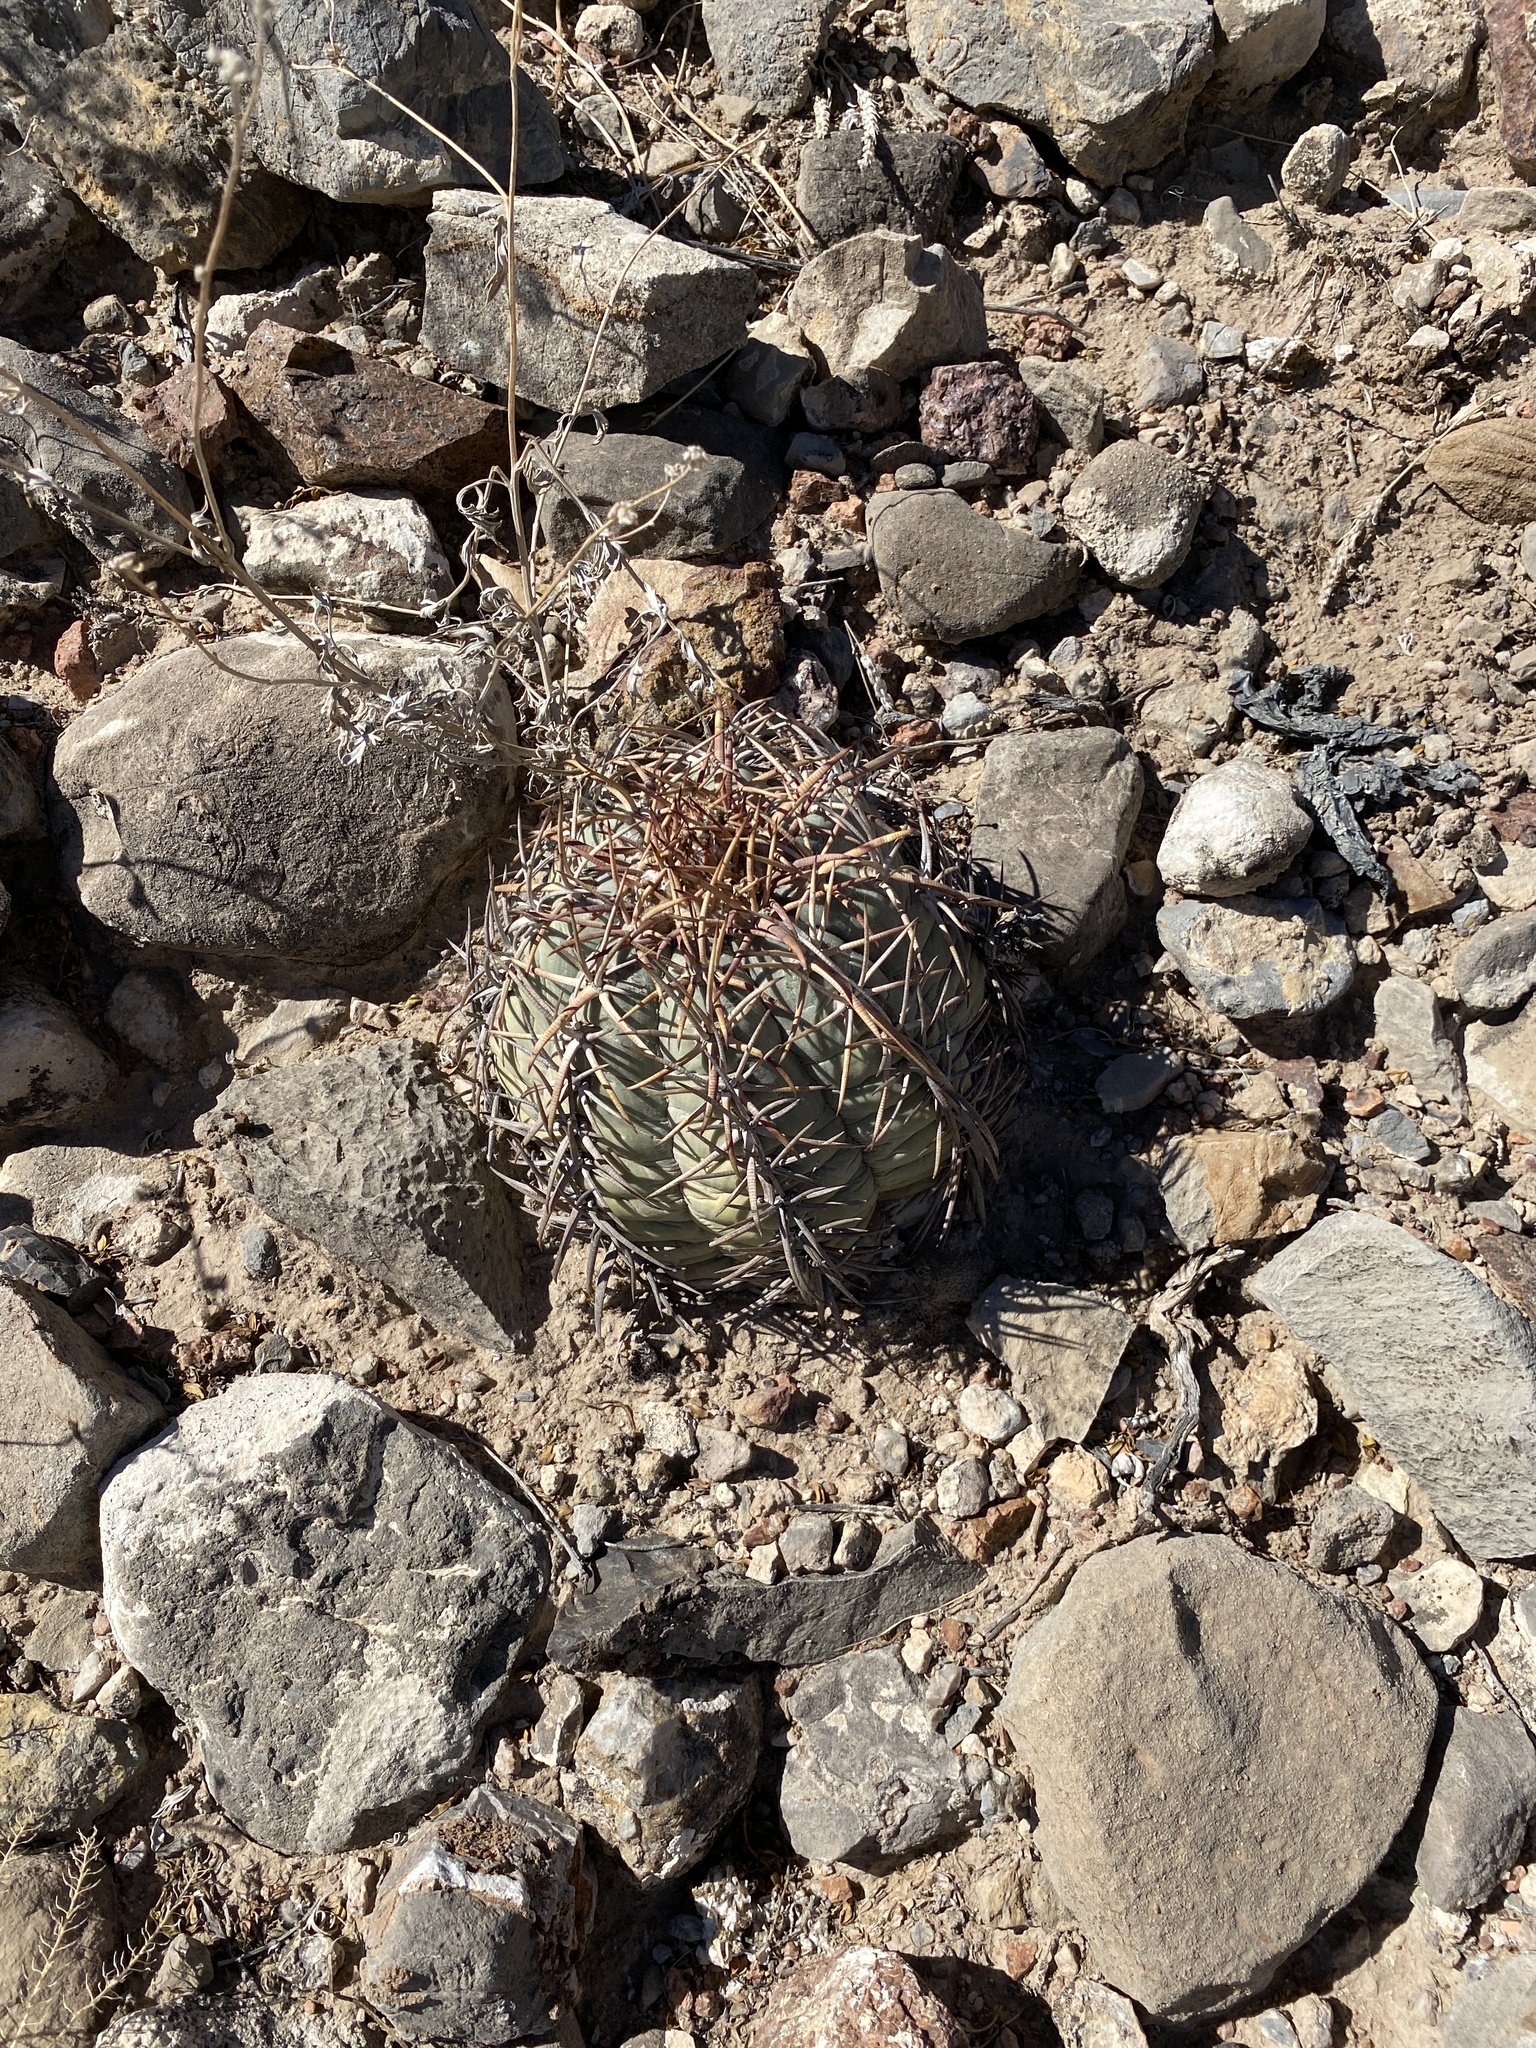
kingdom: Plantae
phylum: Tracheophyta
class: Magnoliopsida
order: Caryophyllales
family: Cactaceae
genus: Echinocactus
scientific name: Echinocactus horizonthalonius
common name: Devilshead
